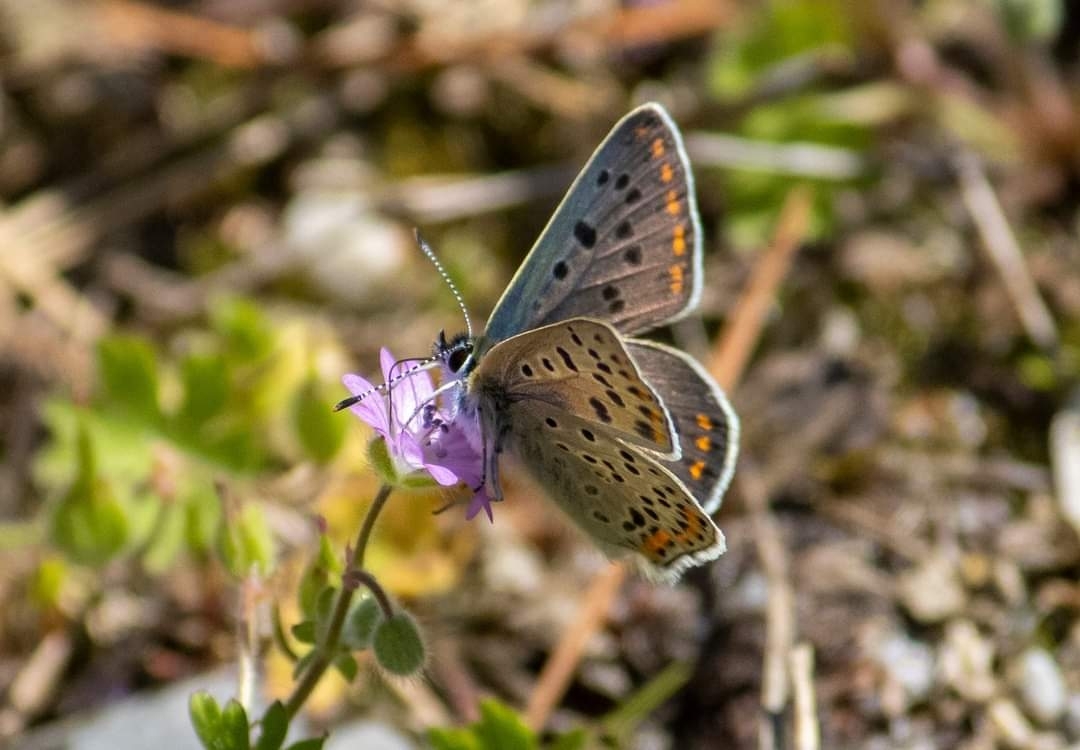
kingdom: Animalia
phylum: Arthropoda
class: Insecta
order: Lepidoptera
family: Lycaenidae
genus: Loweia
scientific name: Loweia tityrus
